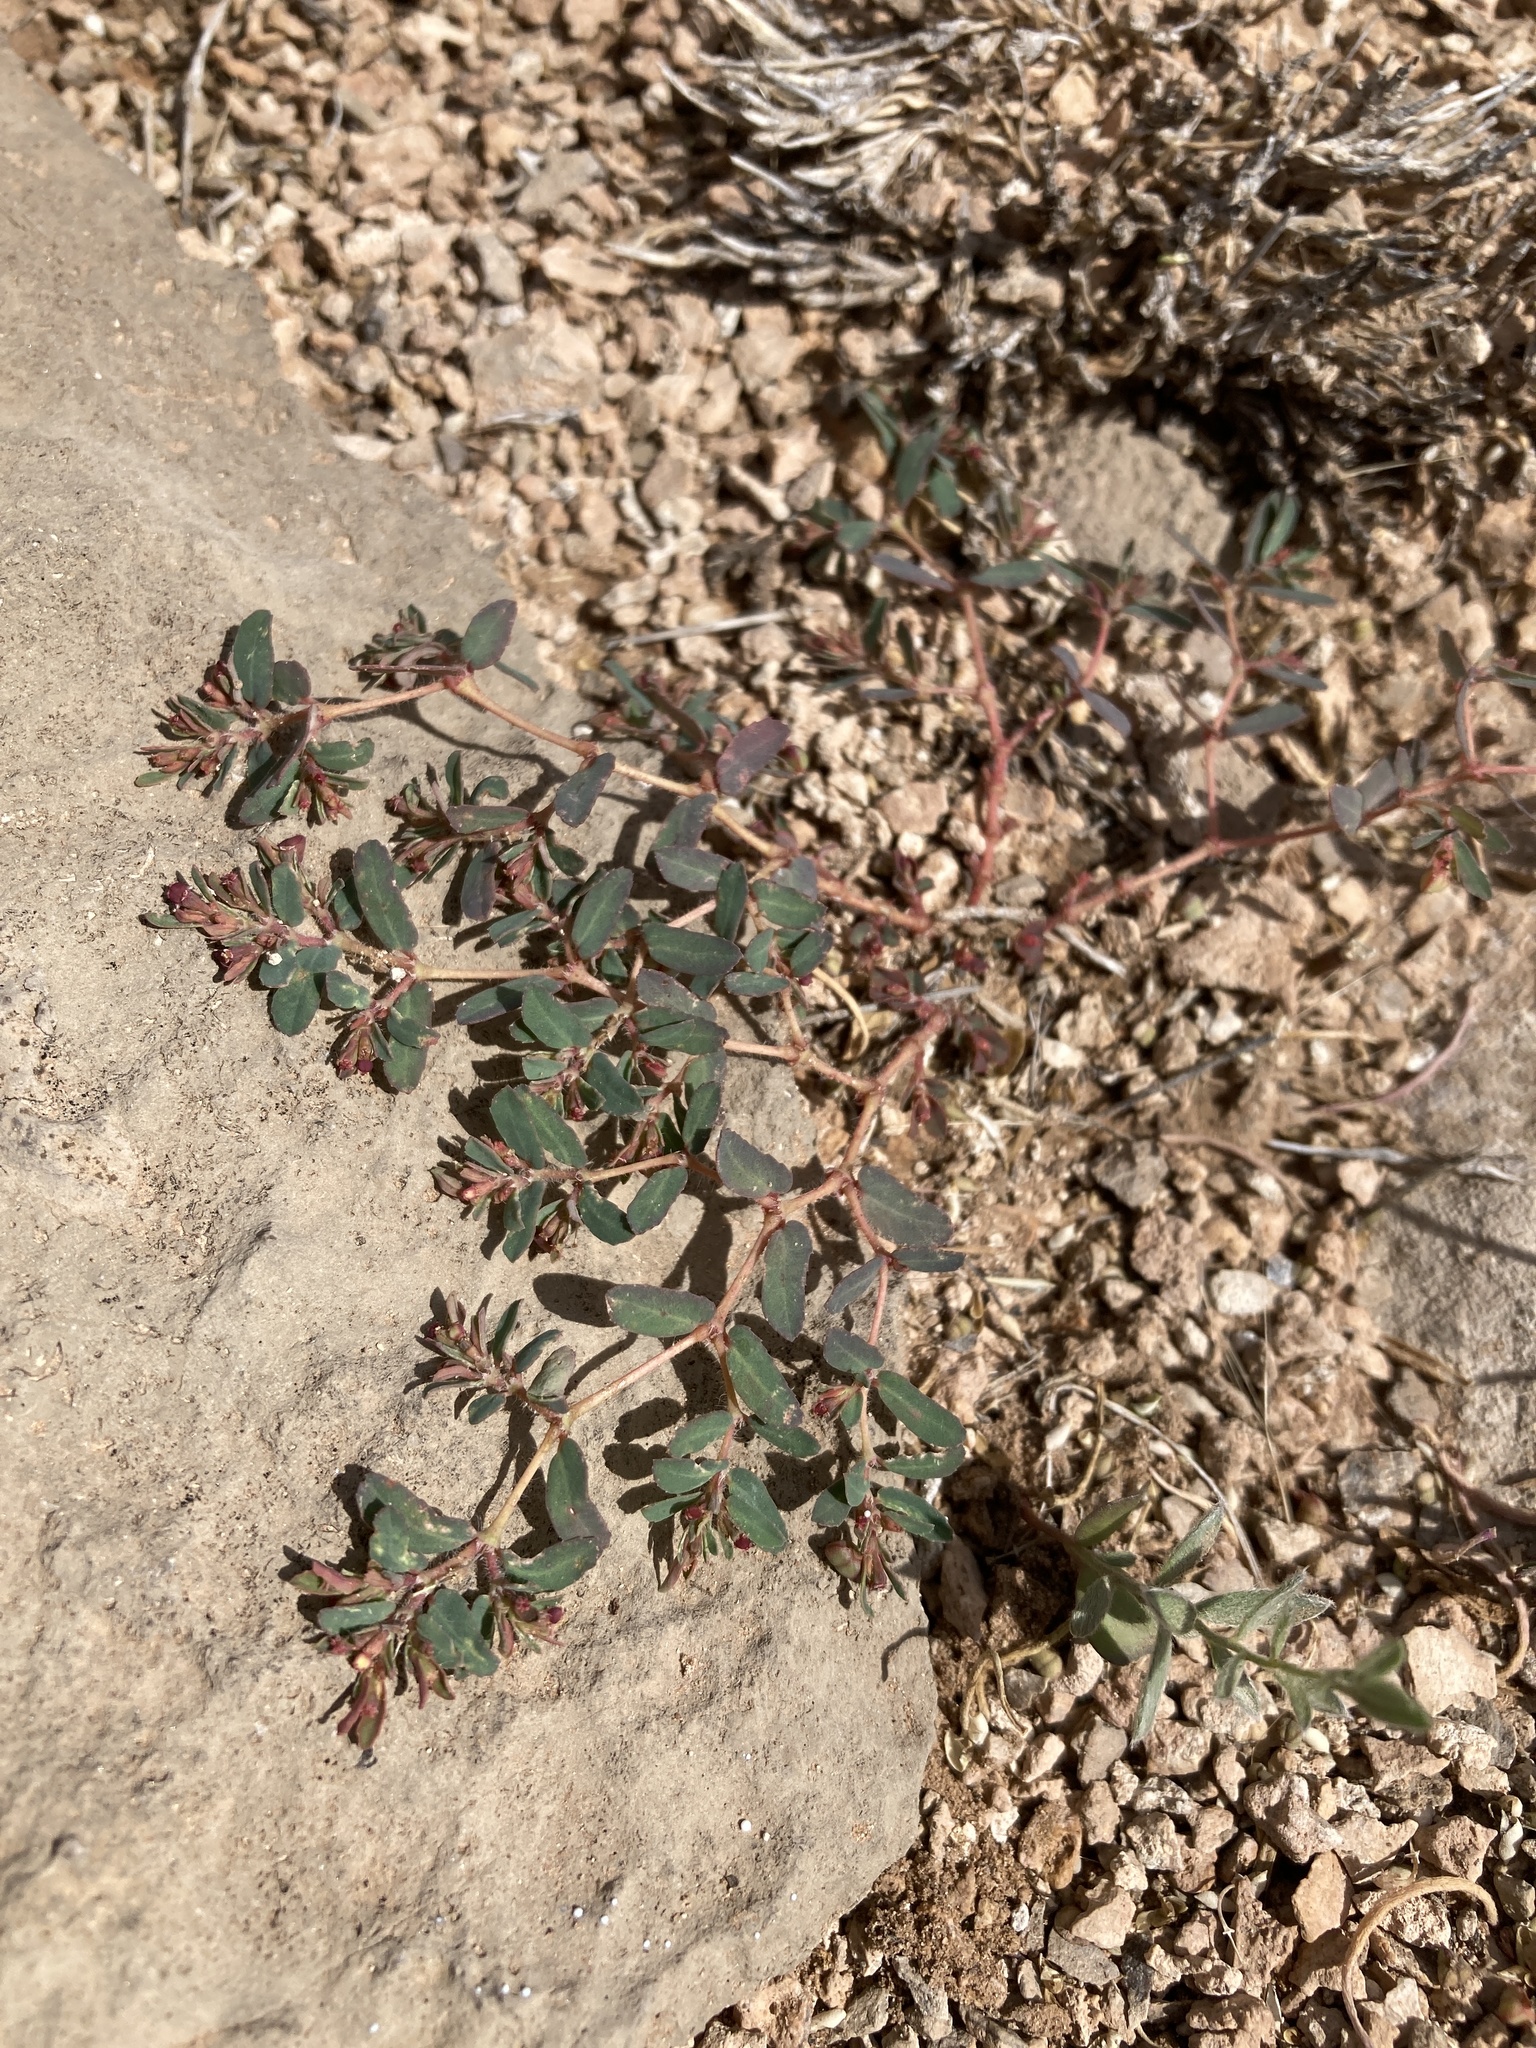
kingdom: Plantae
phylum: Tracheophyta
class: Magnoliopsida
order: Malpighiales
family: Euphorbiaceae
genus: Euphorbia
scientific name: Euphorbia serrula
